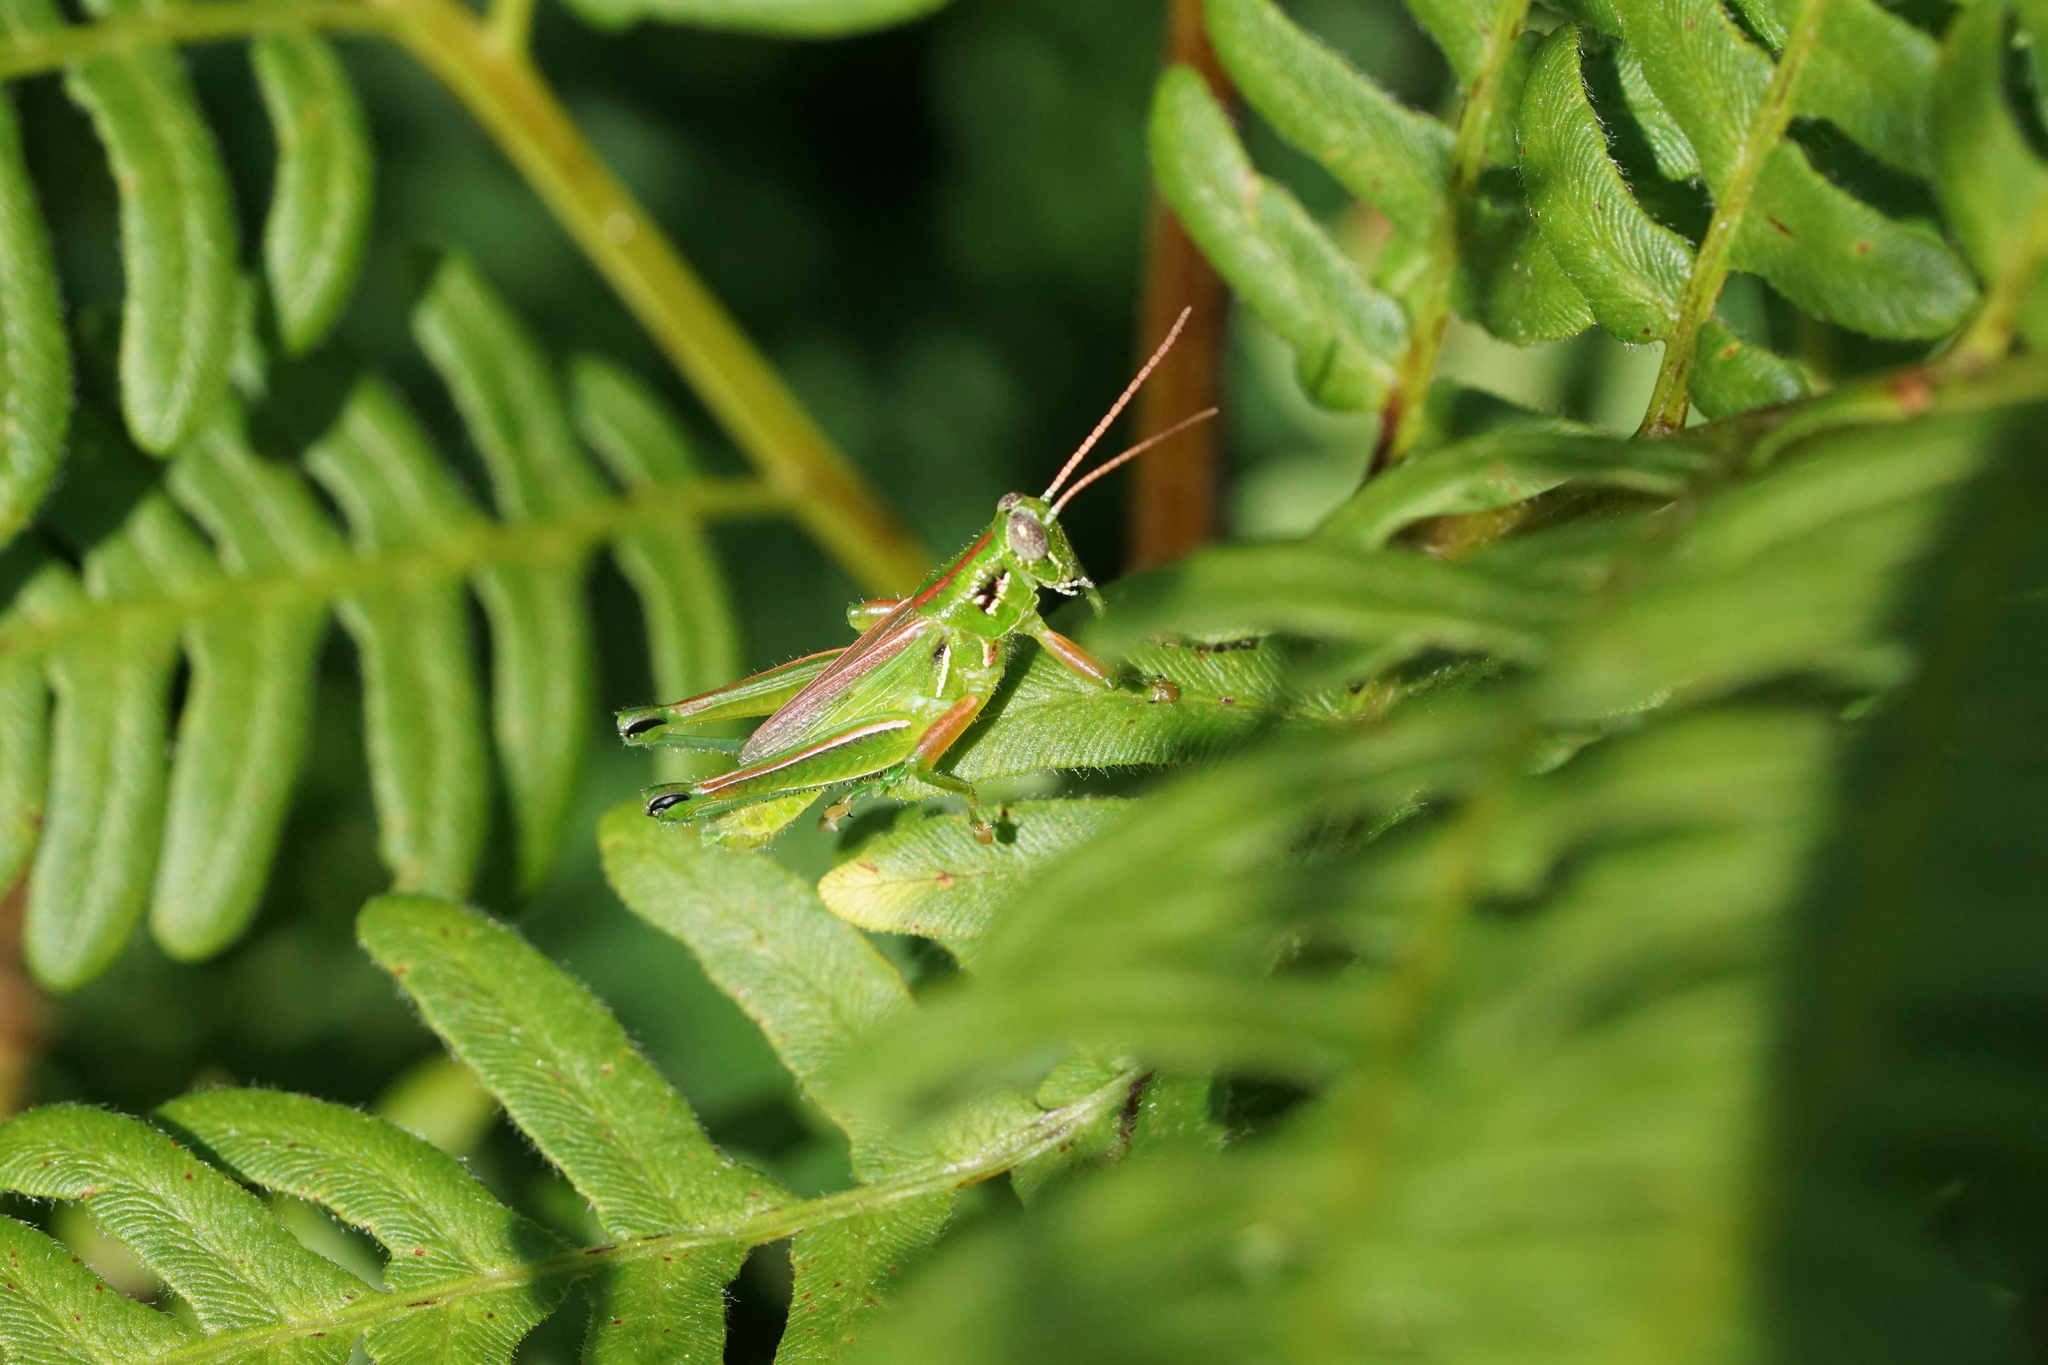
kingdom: Animalia
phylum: Arthropoda
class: Insecta
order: Orthoptera
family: Acrididae
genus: Hesperotettix
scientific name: Hesperotettix viridis
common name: Meadow purple-striped grasshopper
